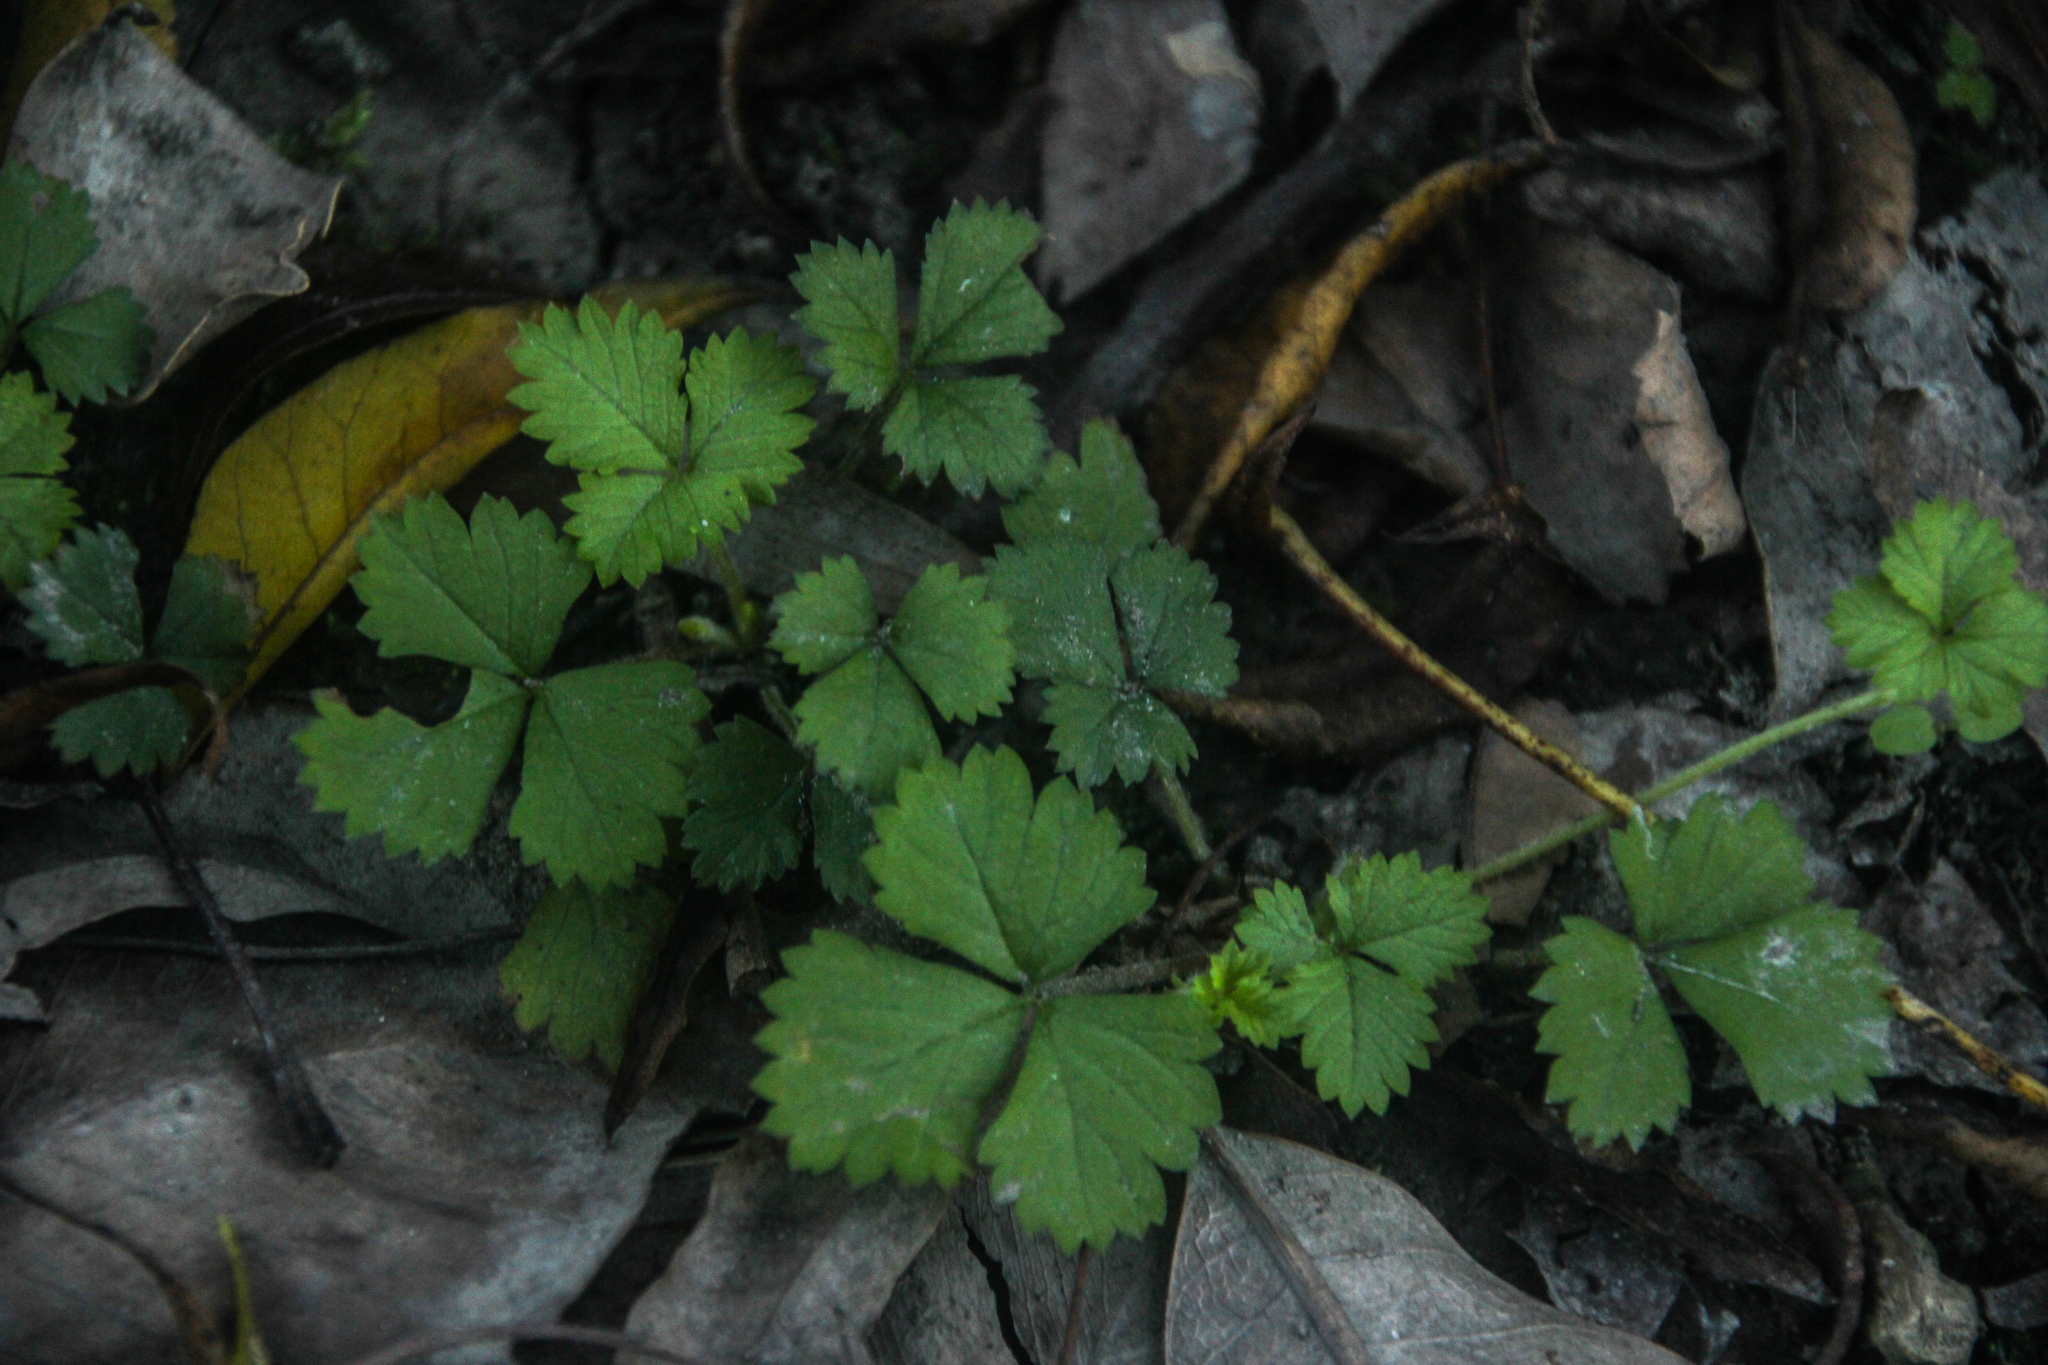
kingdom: Plantae
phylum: Tracheophyta
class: Magnoliopsida
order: Rosales
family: Rosaceae
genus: Potentilla
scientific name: Potentilla indica
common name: Yellow-flowered strawberry
